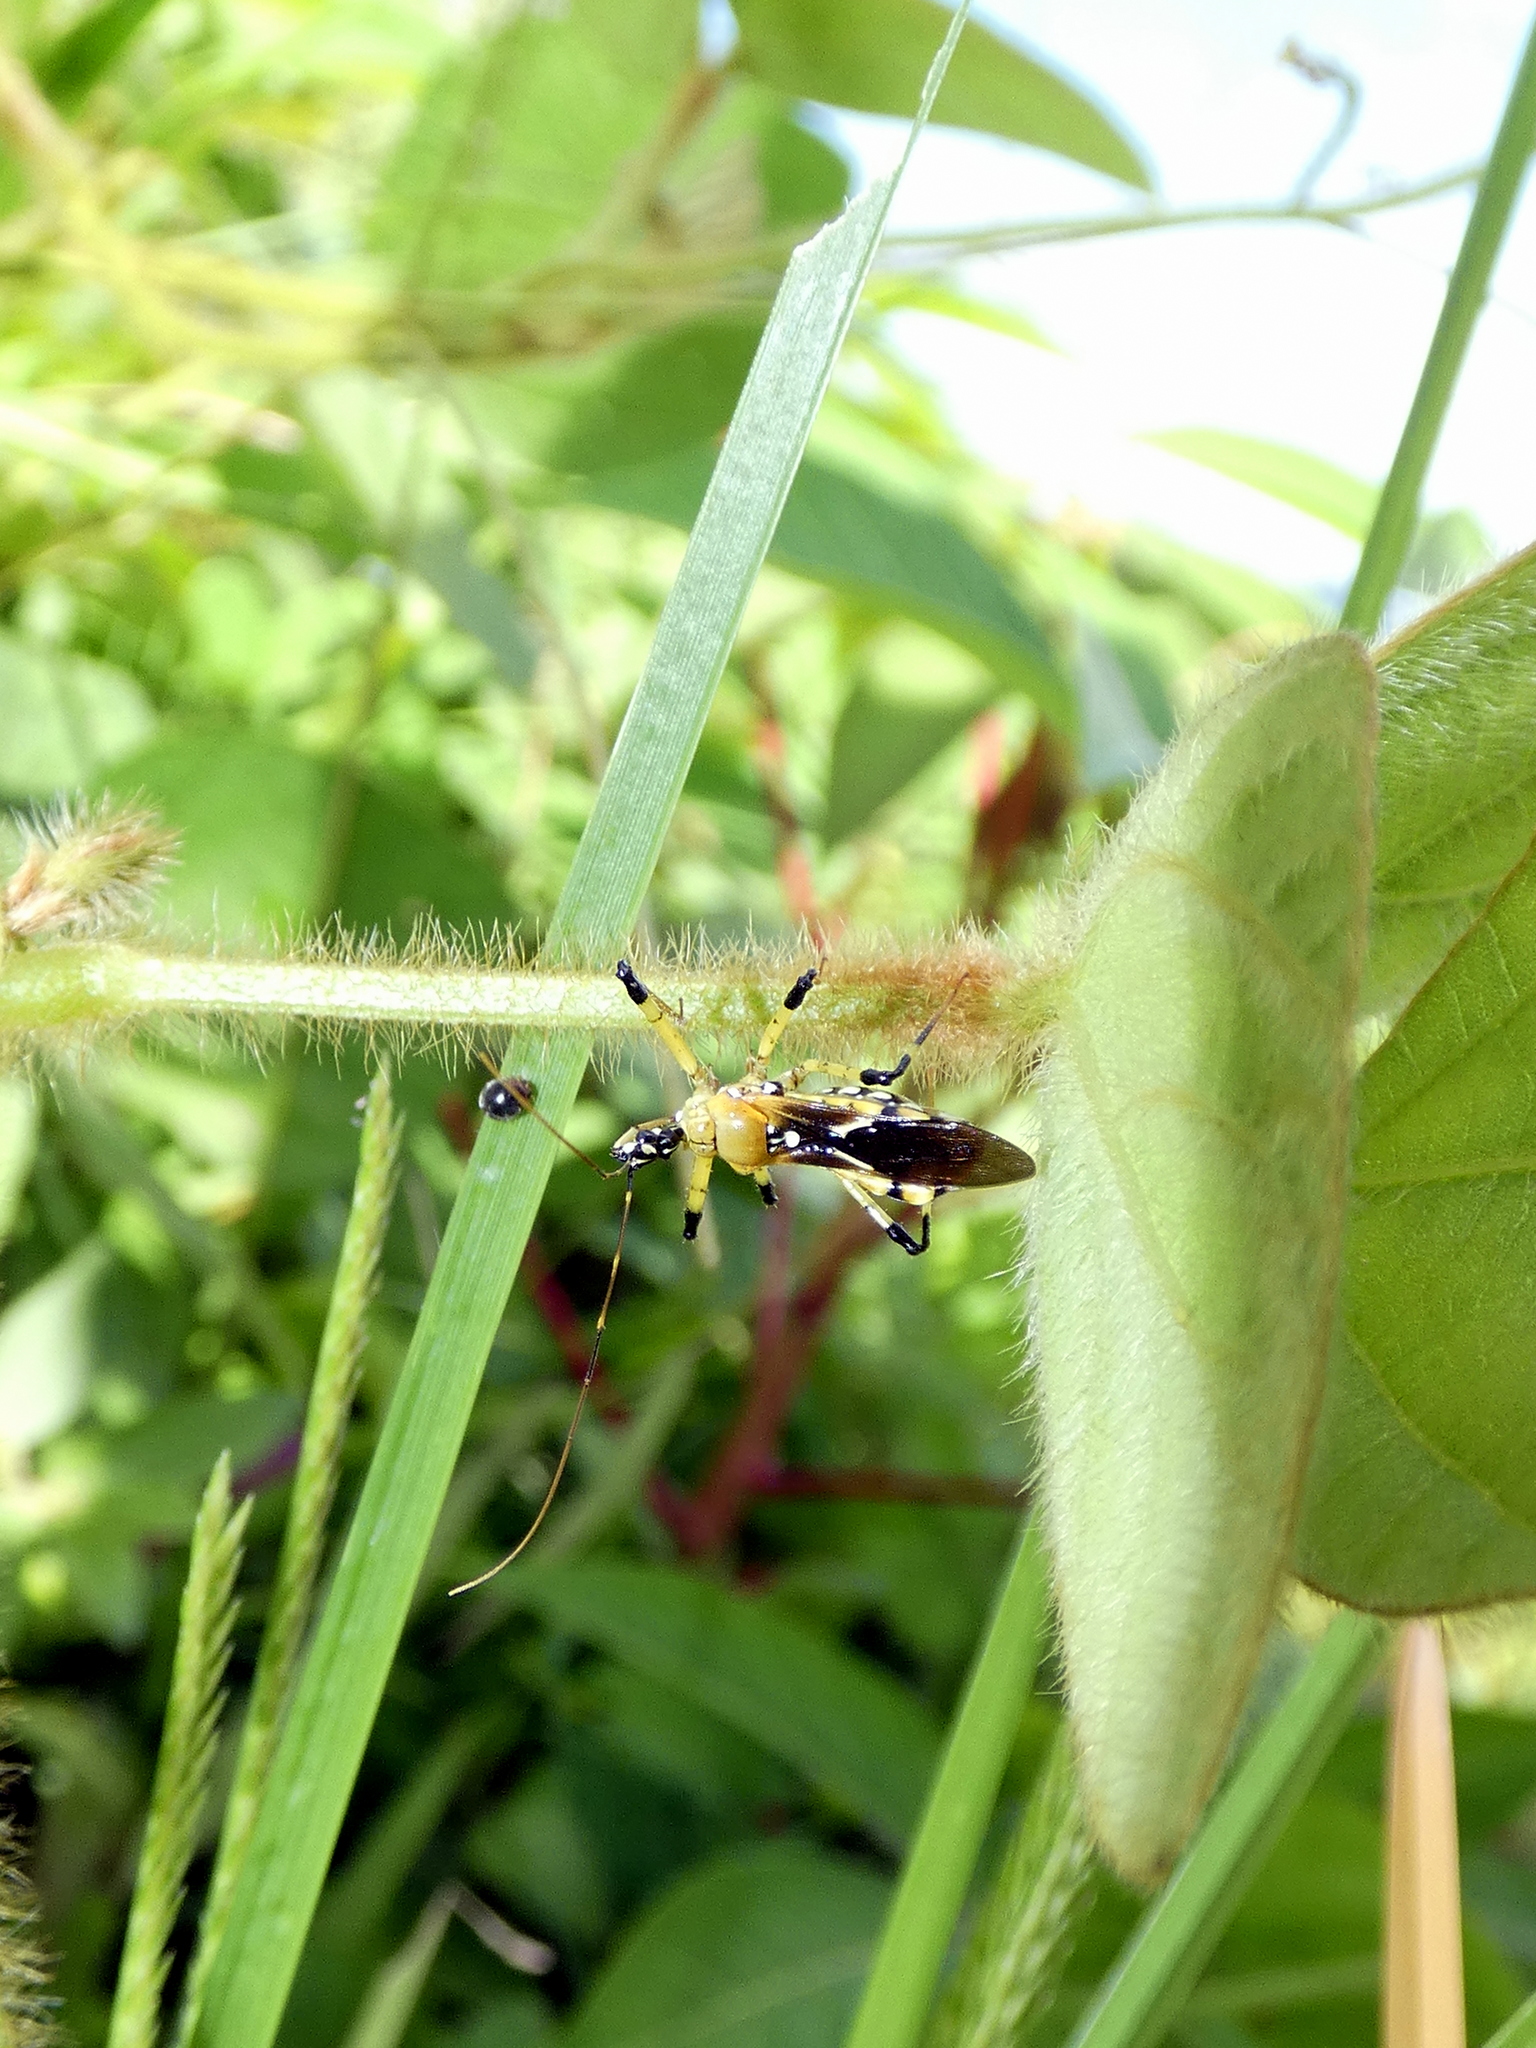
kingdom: Animalia
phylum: Arthropoda
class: Insecta
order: Hemiptera
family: Reduviidae
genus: Cosmolestes
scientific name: Cosmolestes picticeps
